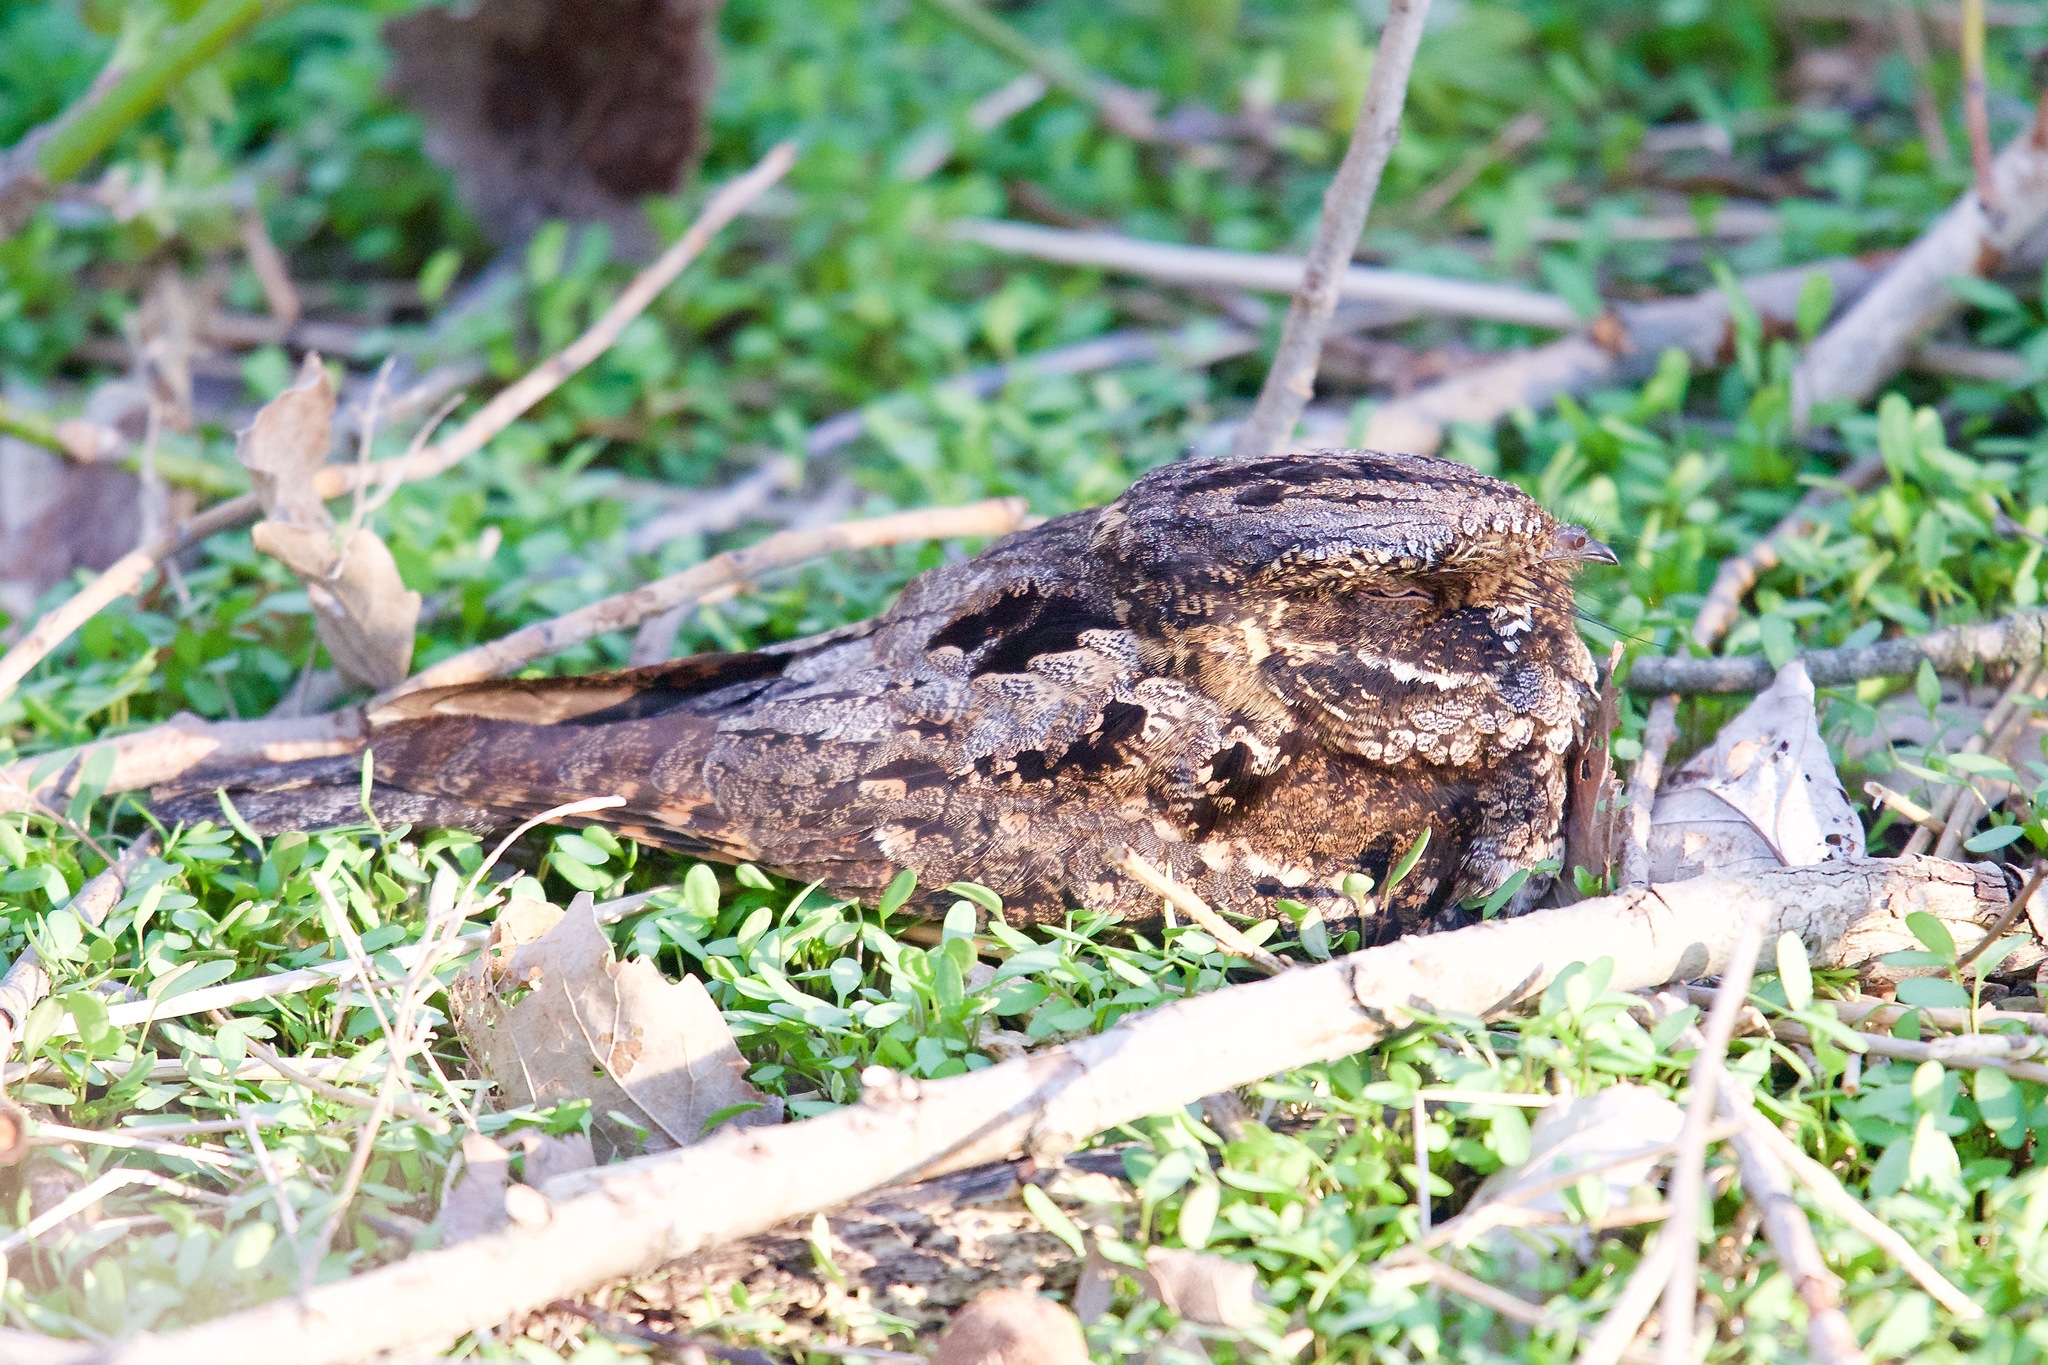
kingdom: Animalia
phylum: Chordata
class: Aves
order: Caprimulgiformes
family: Caprimulgidae
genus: Antrostomus
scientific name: Antrostomus vociferus
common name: Eastern whip-poor-will
